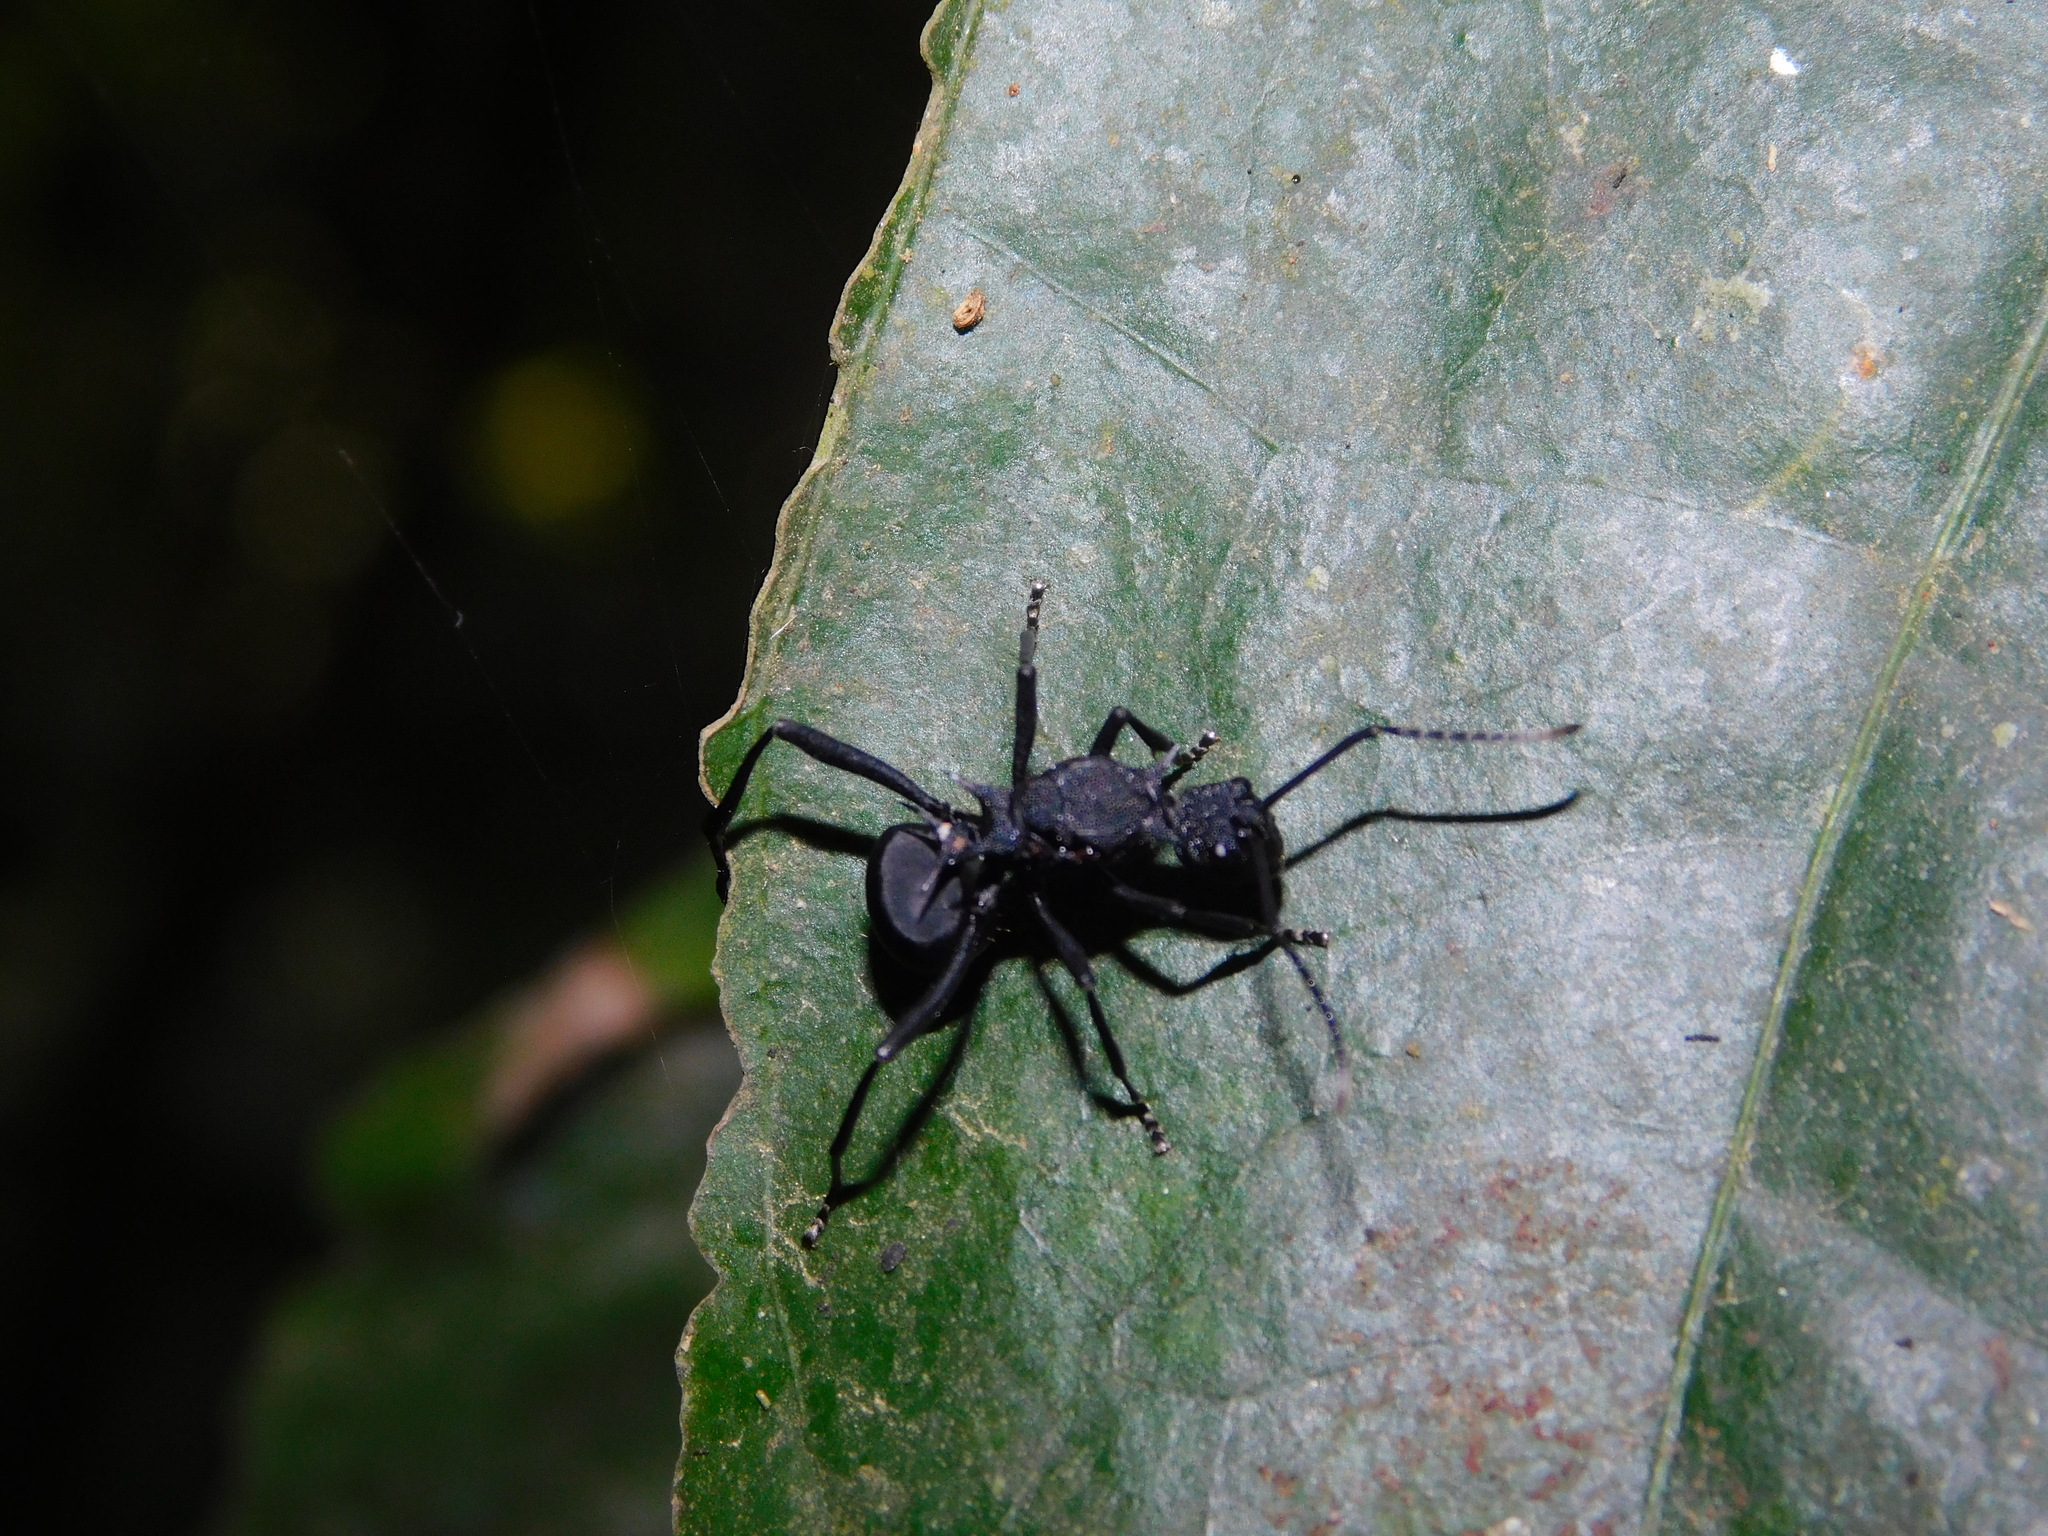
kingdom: Animalia
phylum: Arthropoda
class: Insecta
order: Hymenoptera
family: Formicidae
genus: Polyrhachis
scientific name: Polyrhachis armata
